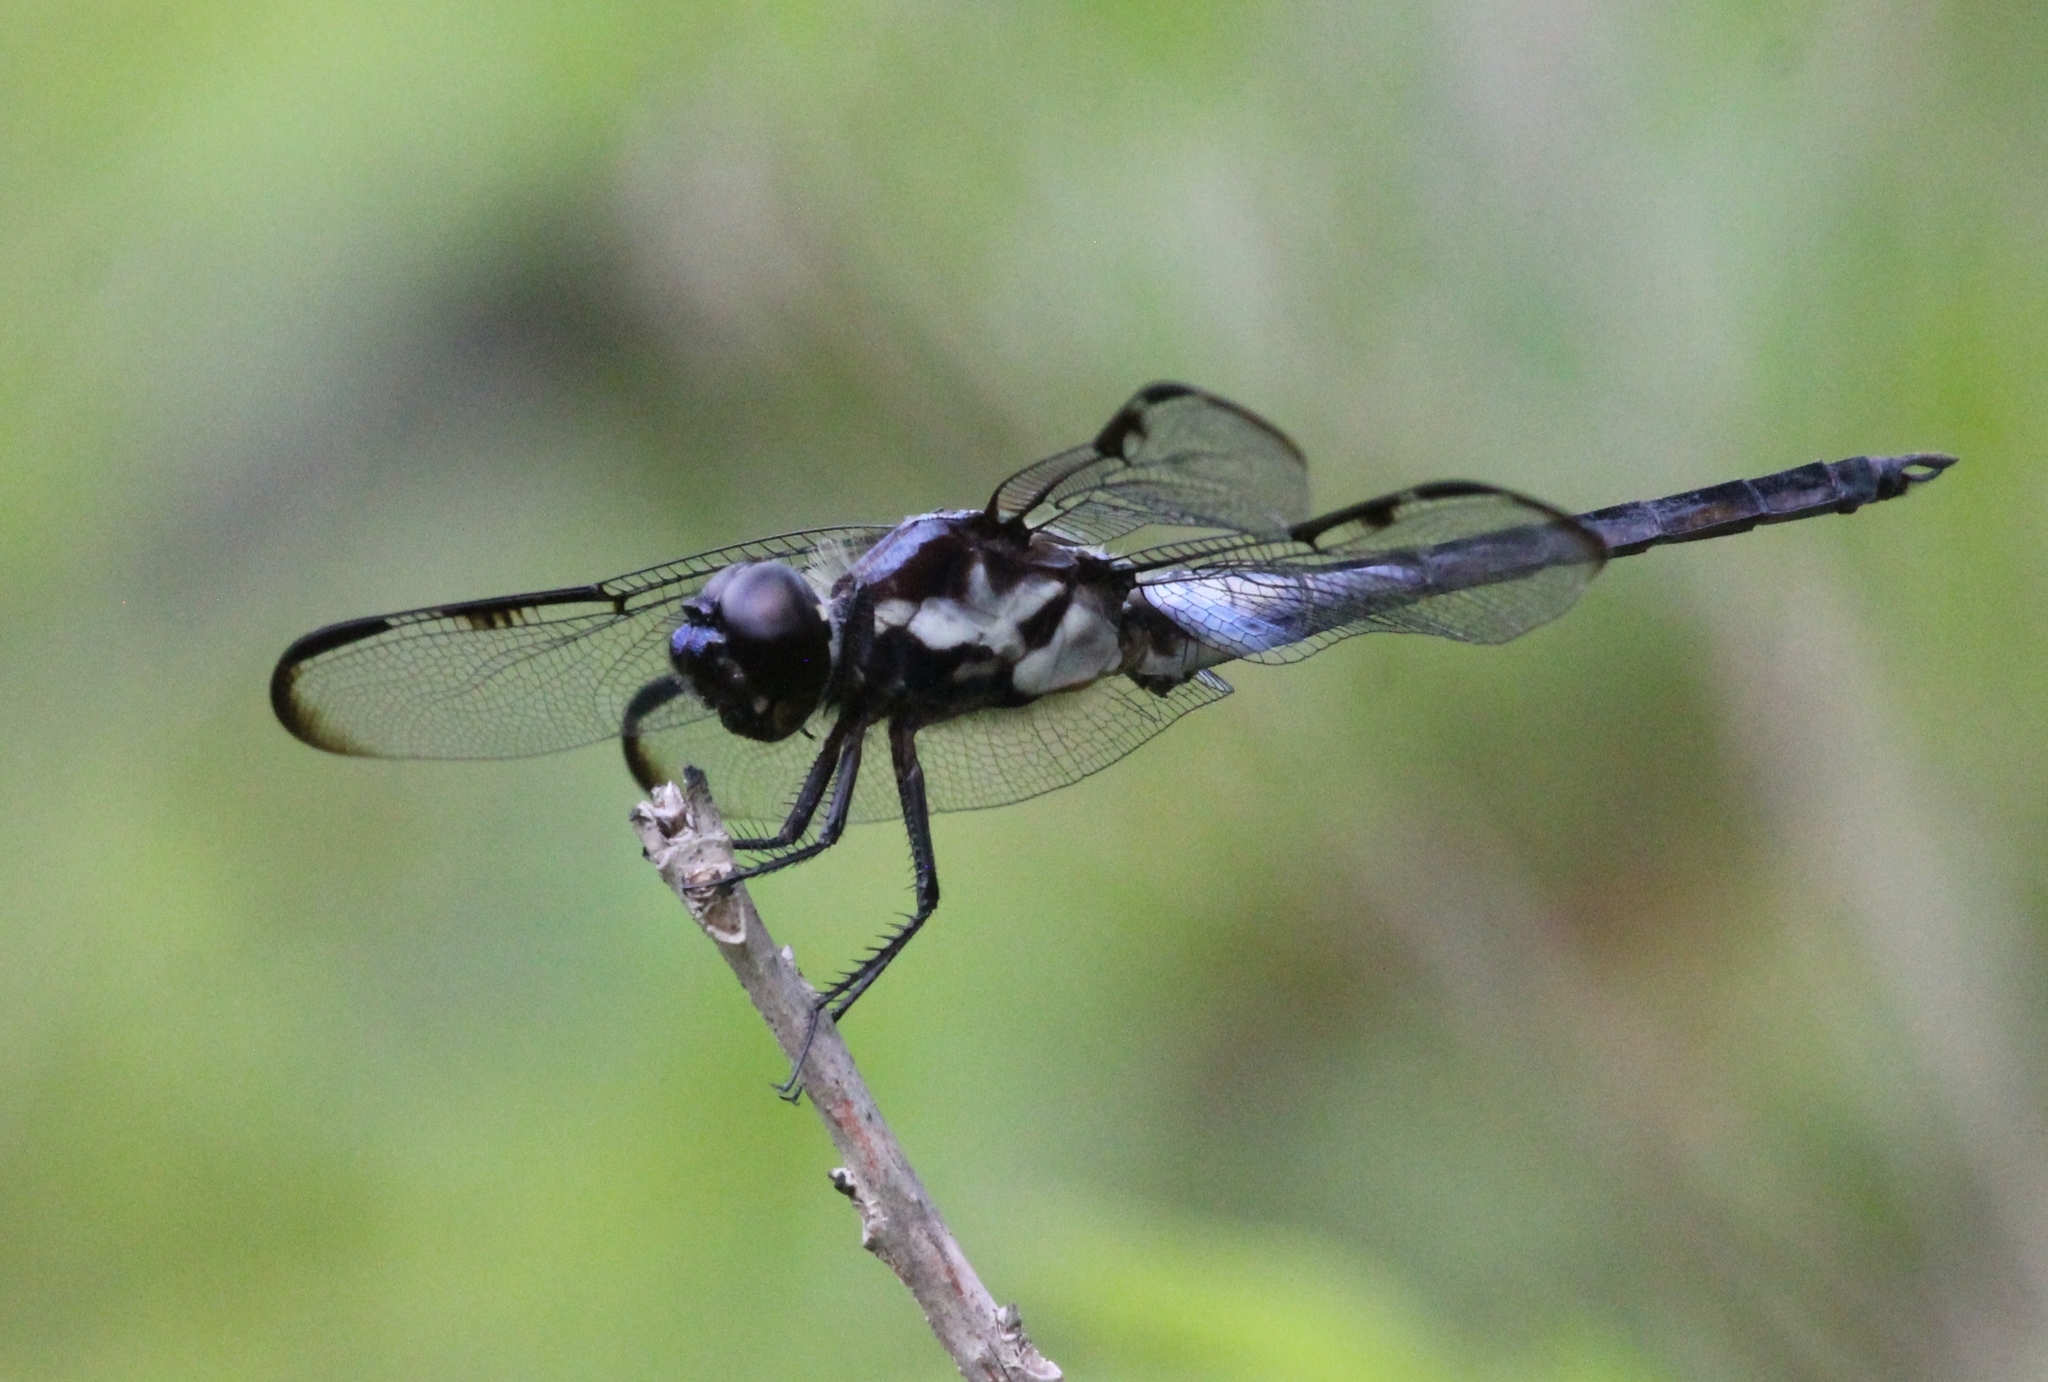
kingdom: Animalia
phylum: Arthropoda
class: Insecta
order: Odonata
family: Libellulidae
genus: Libellula
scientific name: Libellula axilena
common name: Bar-winged skimmer
